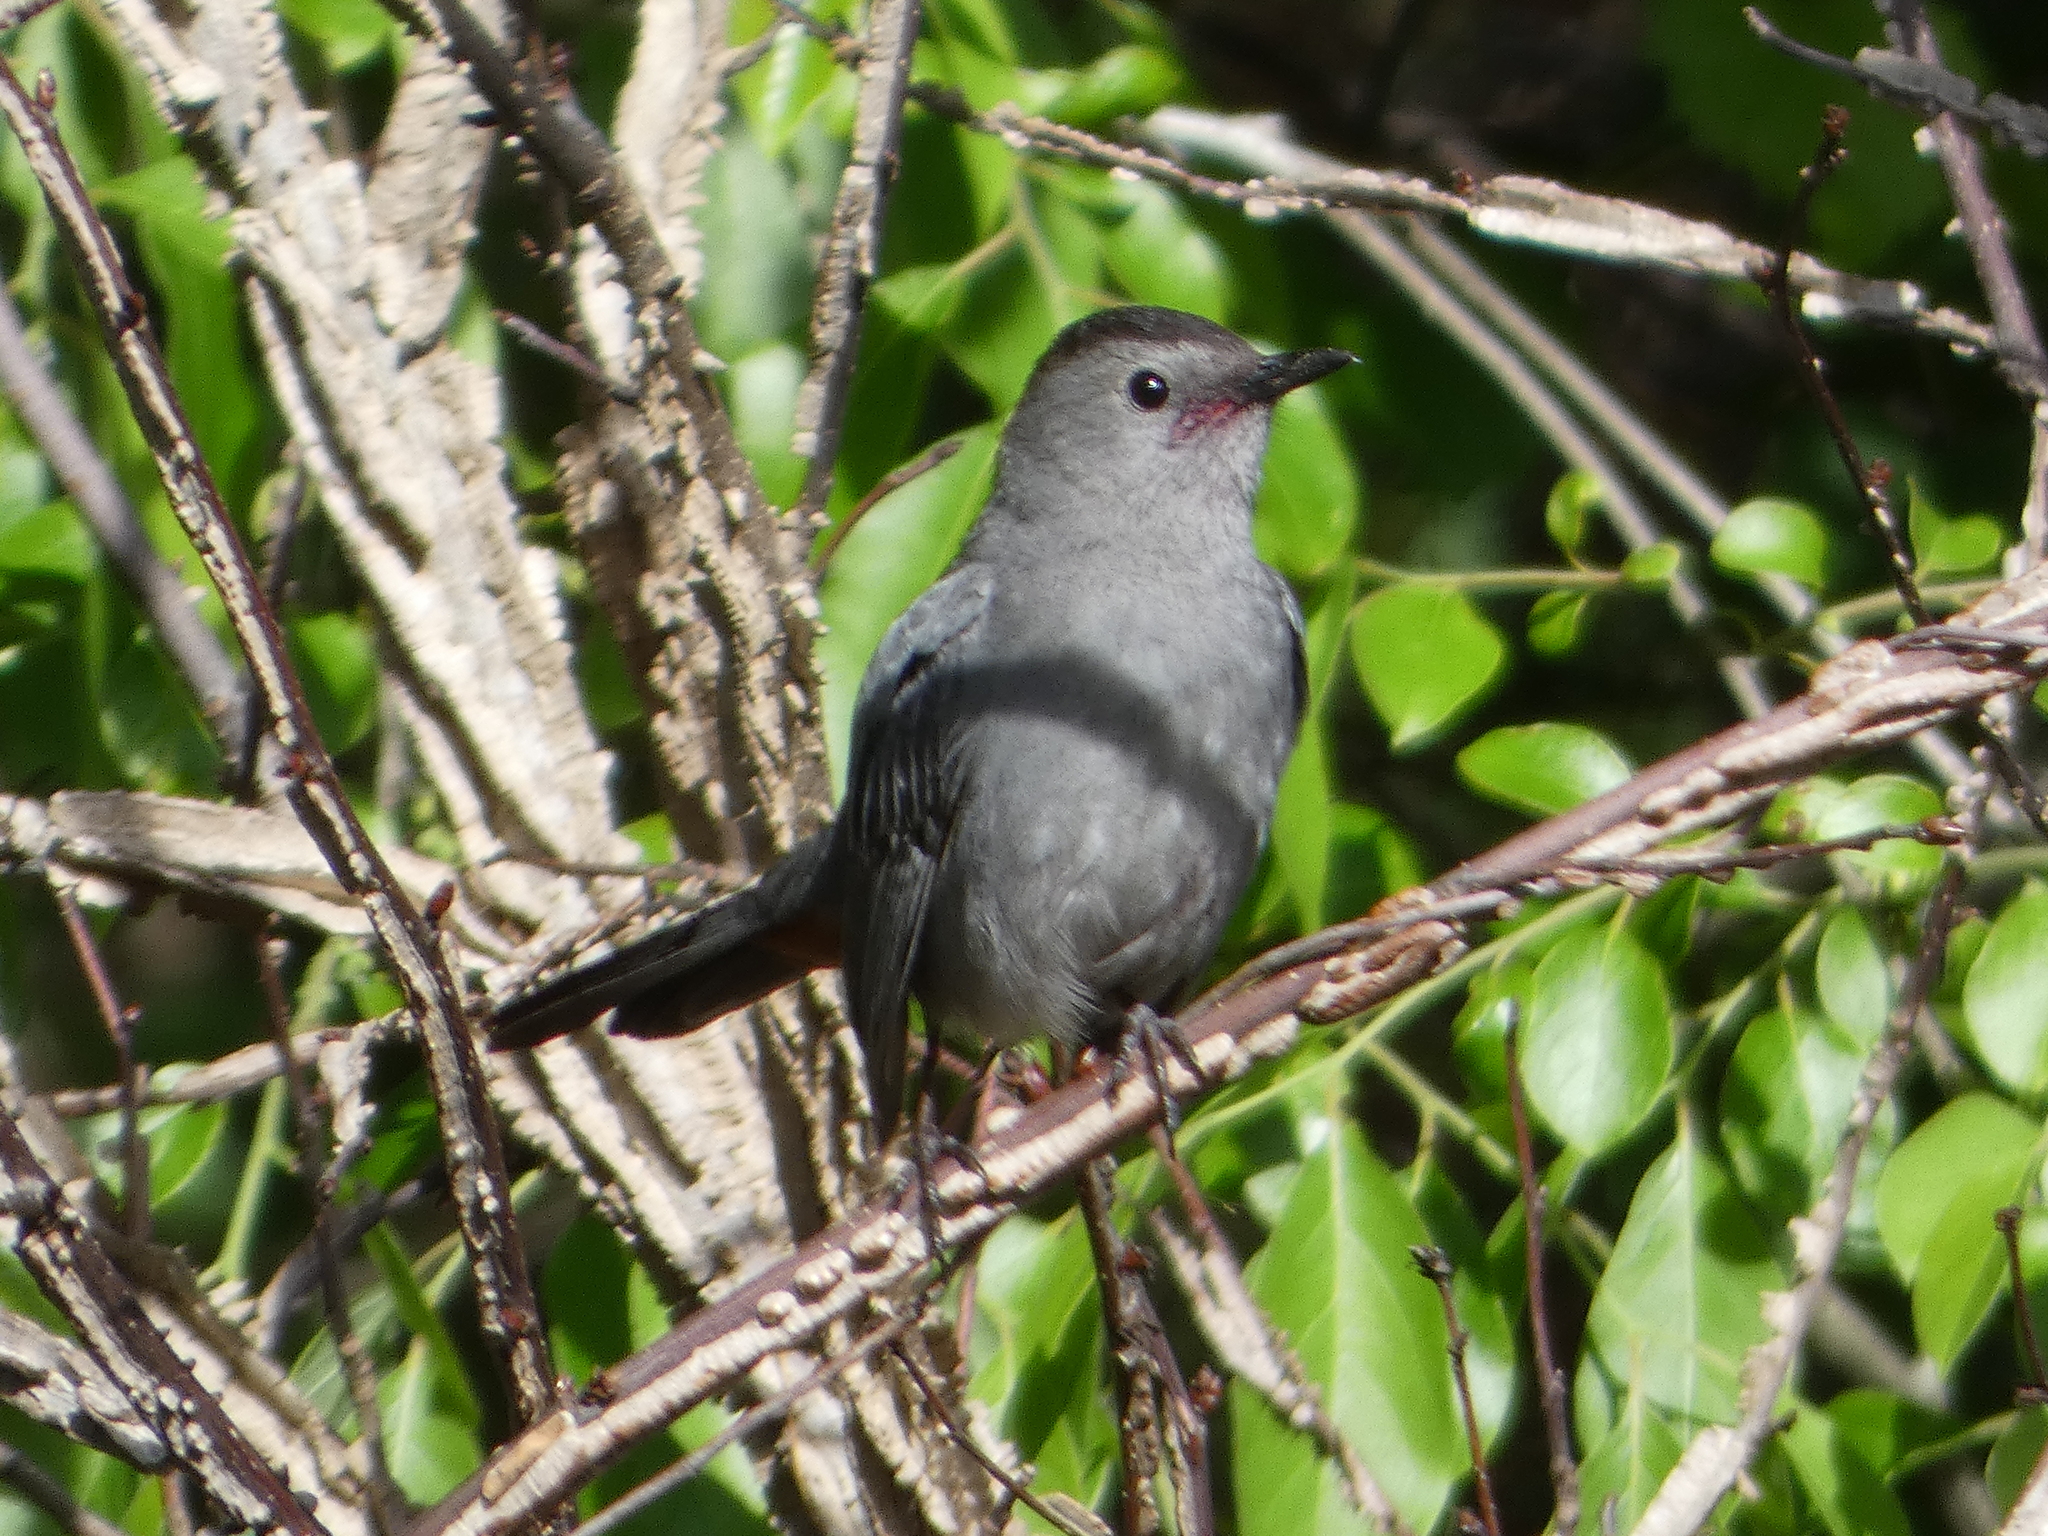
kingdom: Animalia
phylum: Chordata
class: Aves
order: Passeriformes
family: Mimidae
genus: Dumetella
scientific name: Dumetella carolinensis
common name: Gray catbird
